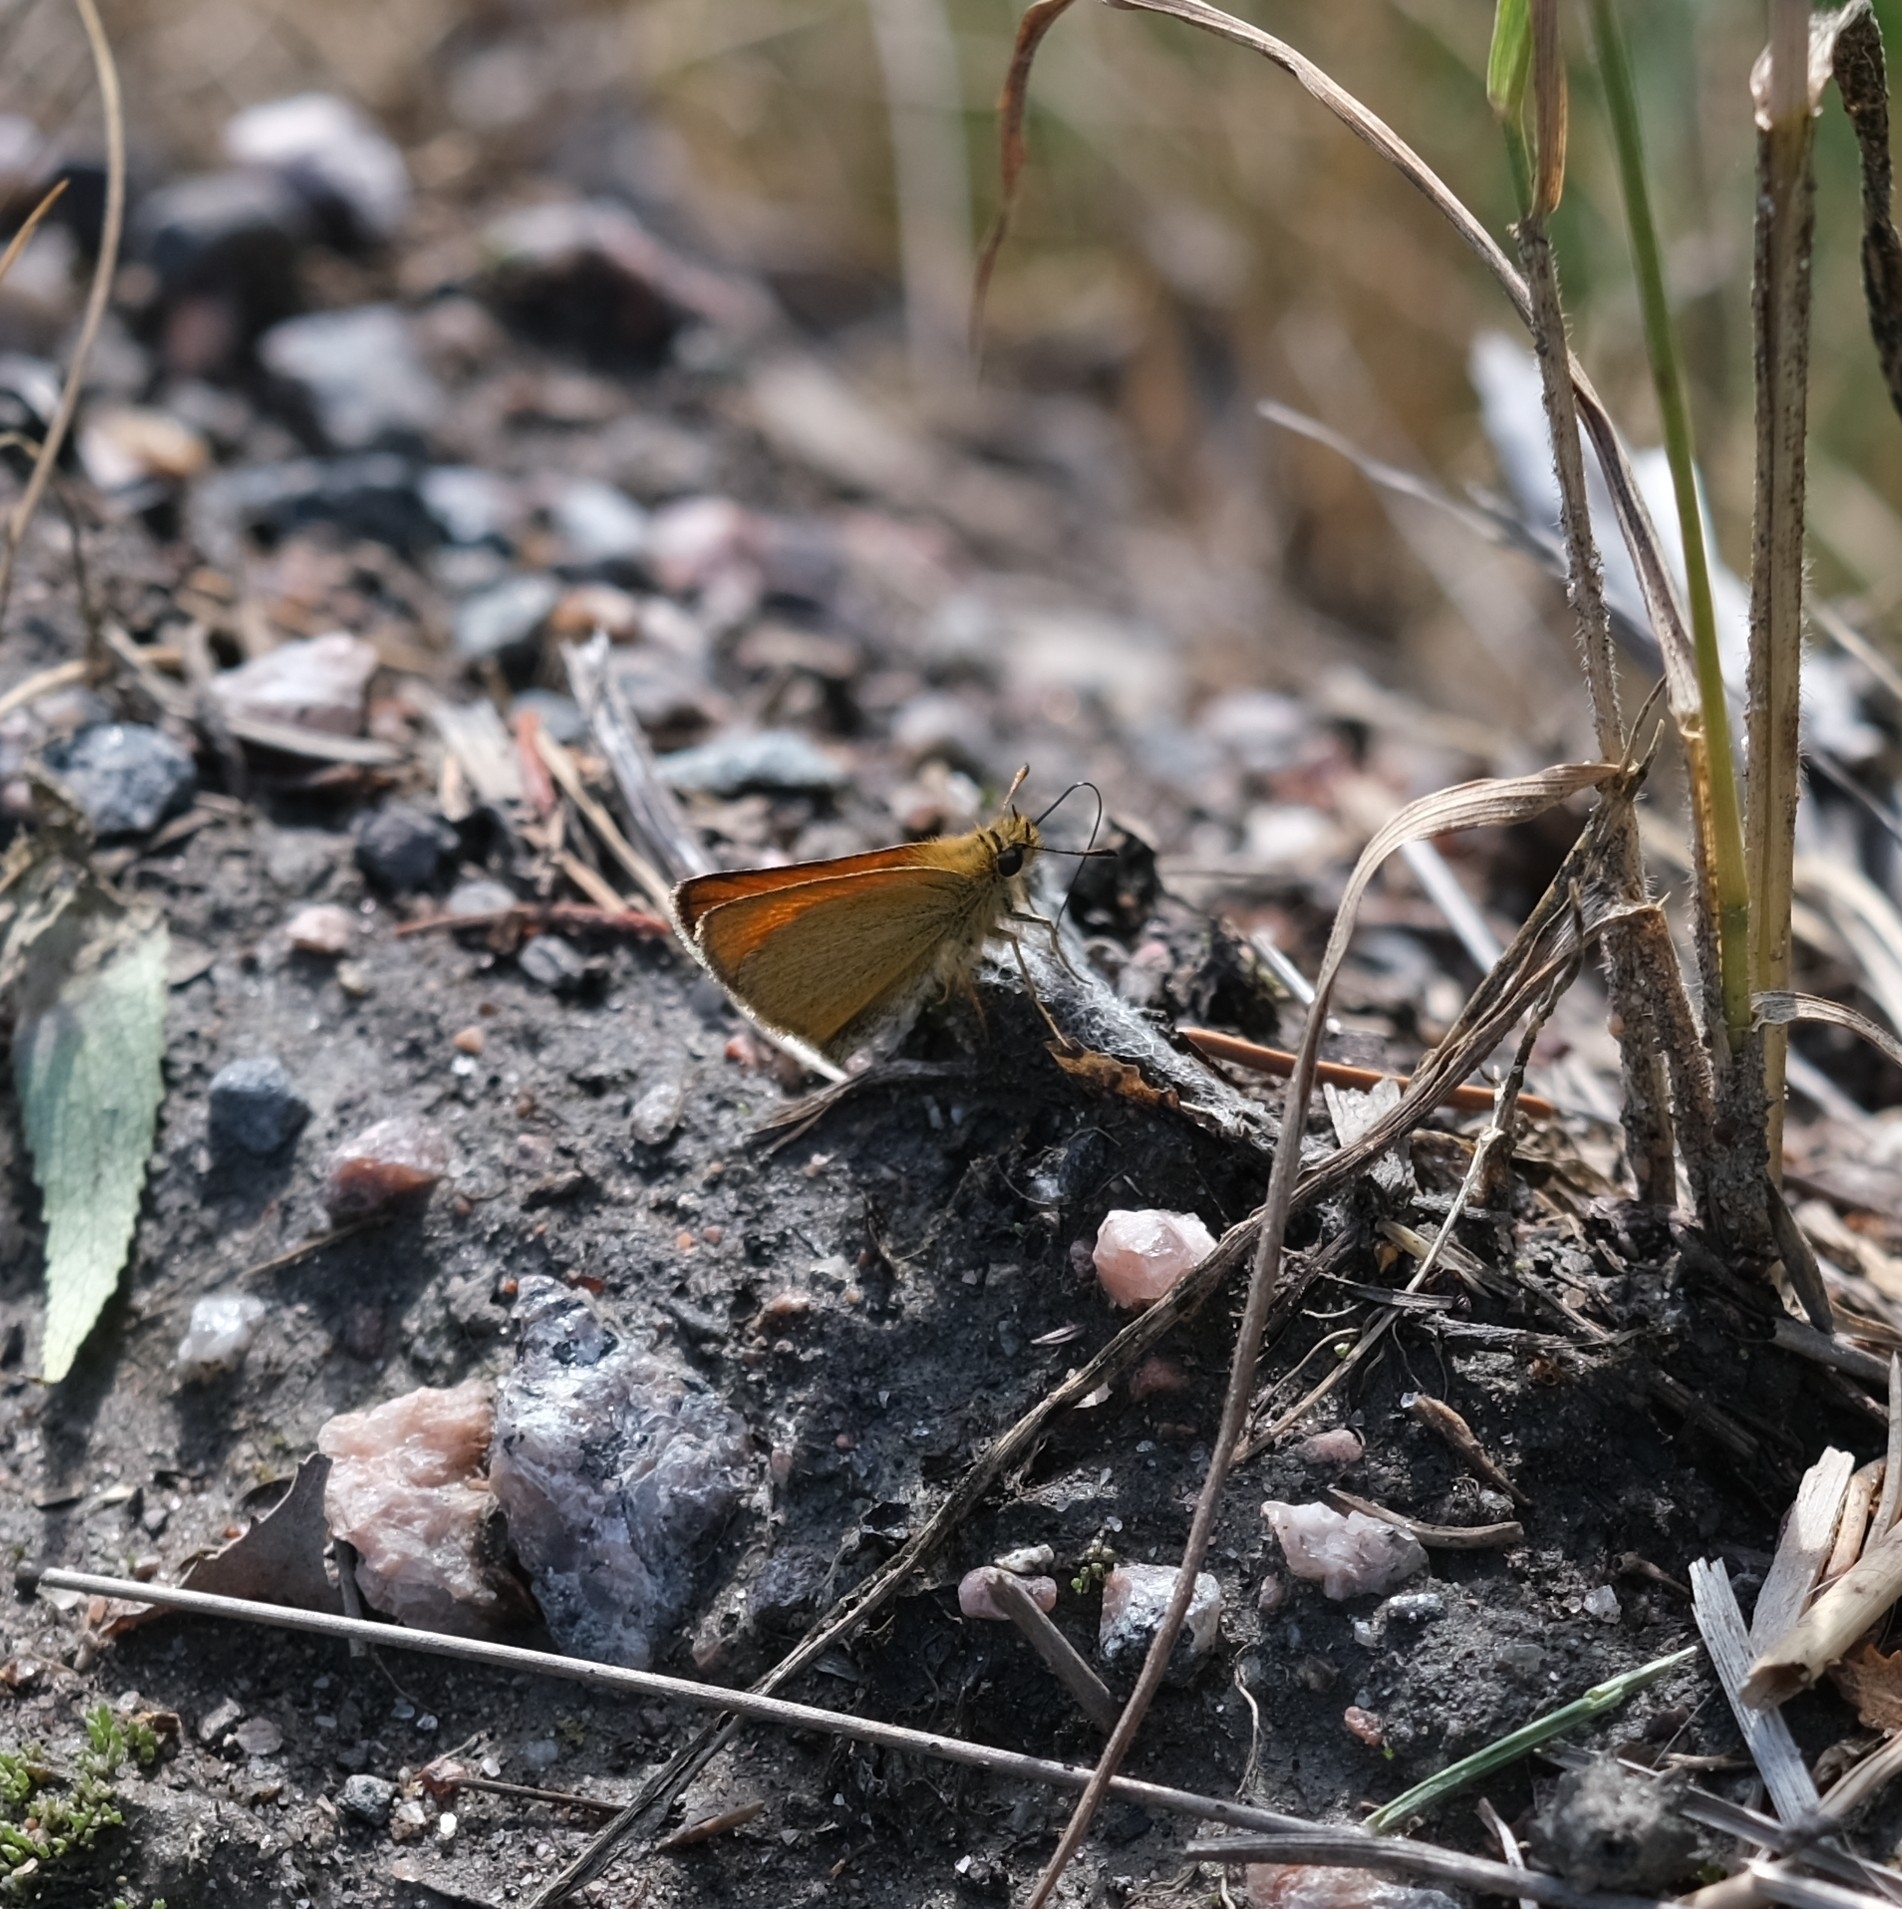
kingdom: Animalia
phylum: Arthropoda
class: Insecta
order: Lepidoptera
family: Hesperiidae
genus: Thymelicus
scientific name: Thymelicus lineola
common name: Essex skipper
